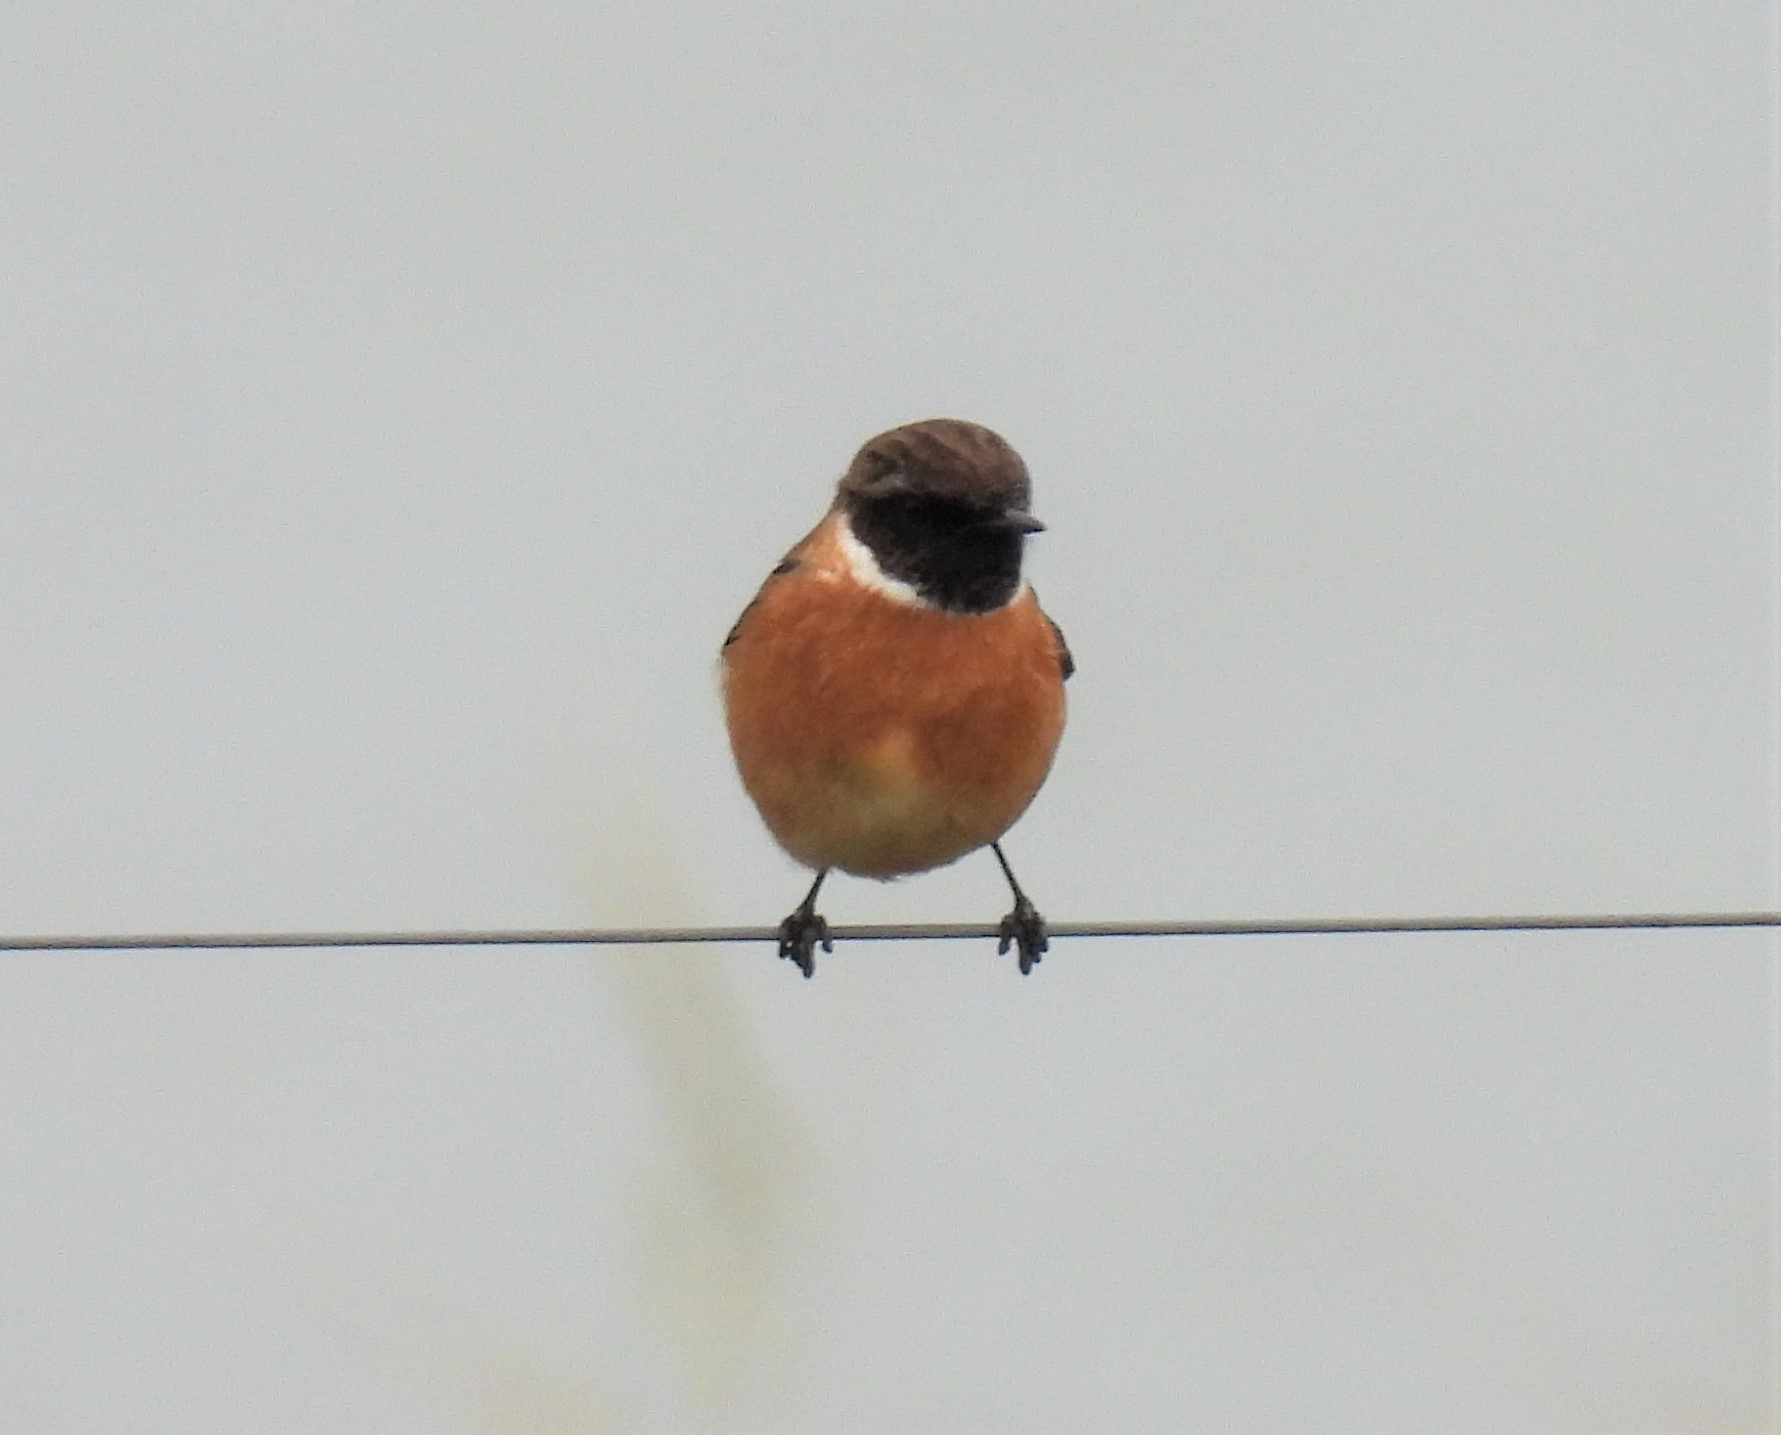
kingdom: Animalia
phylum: Chordata
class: Aves
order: Passeriformes
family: Muscicapidae
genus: Saxicola
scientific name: Saxicola rubicola
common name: European stonechat
